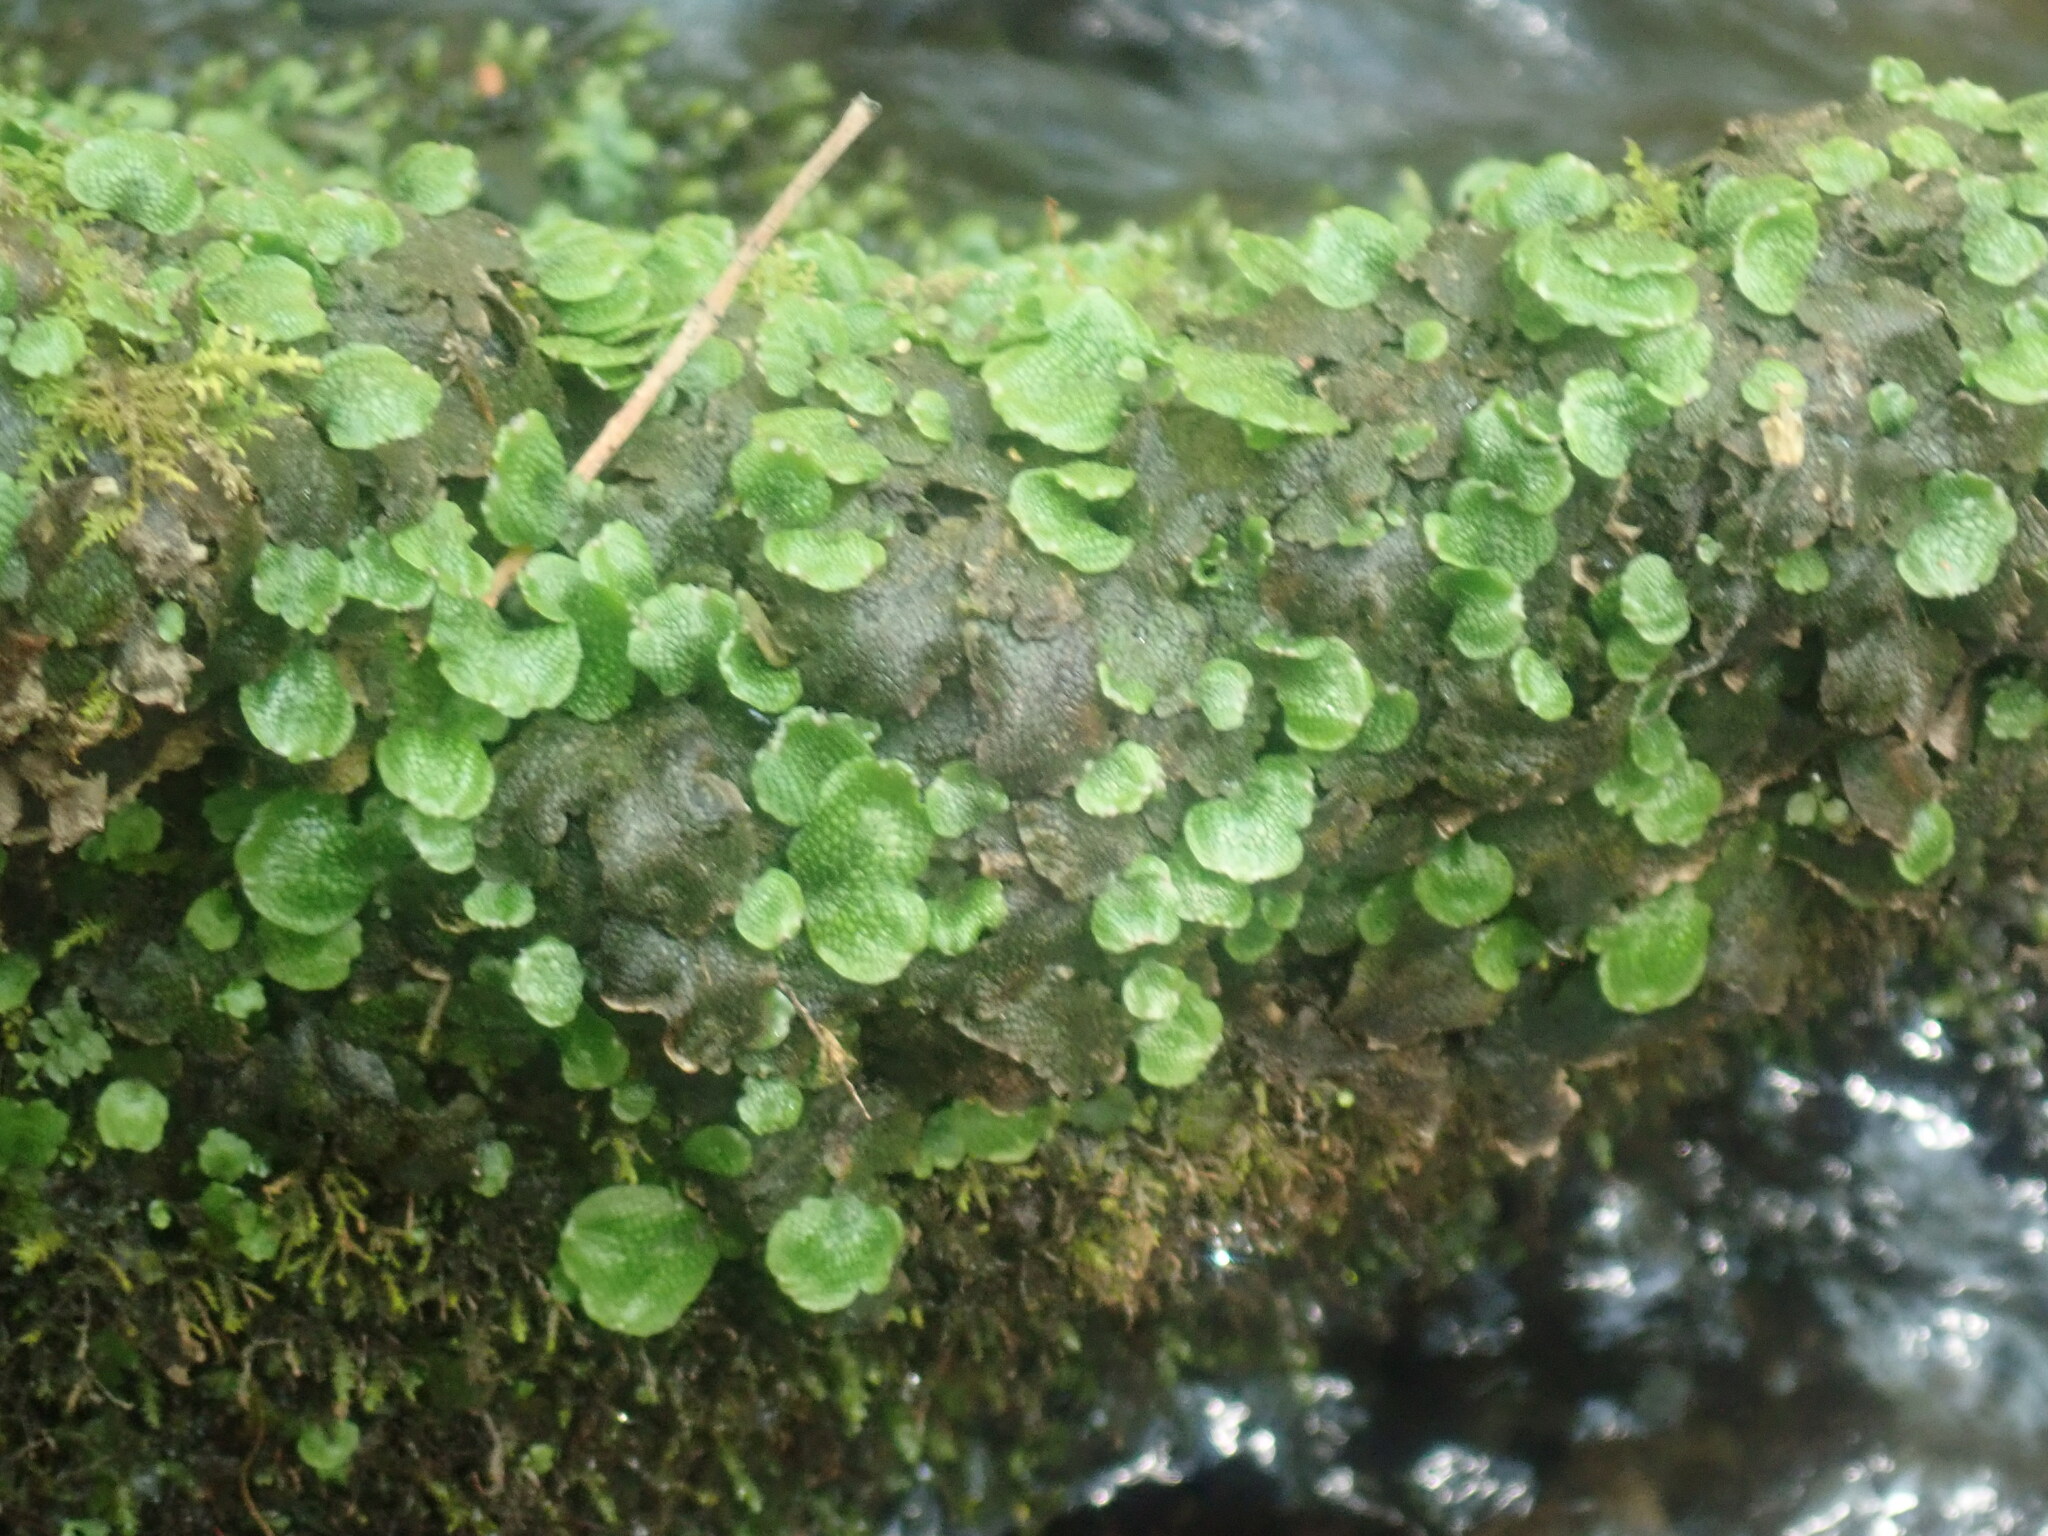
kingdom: Plantae
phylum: Marchantiophyta
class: Marchantiopsida
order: Marchantiales
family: Conocephalaceae
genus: Conocephalum
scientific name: Conocephalum salebrosum
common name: Cat-tongue liverwort
